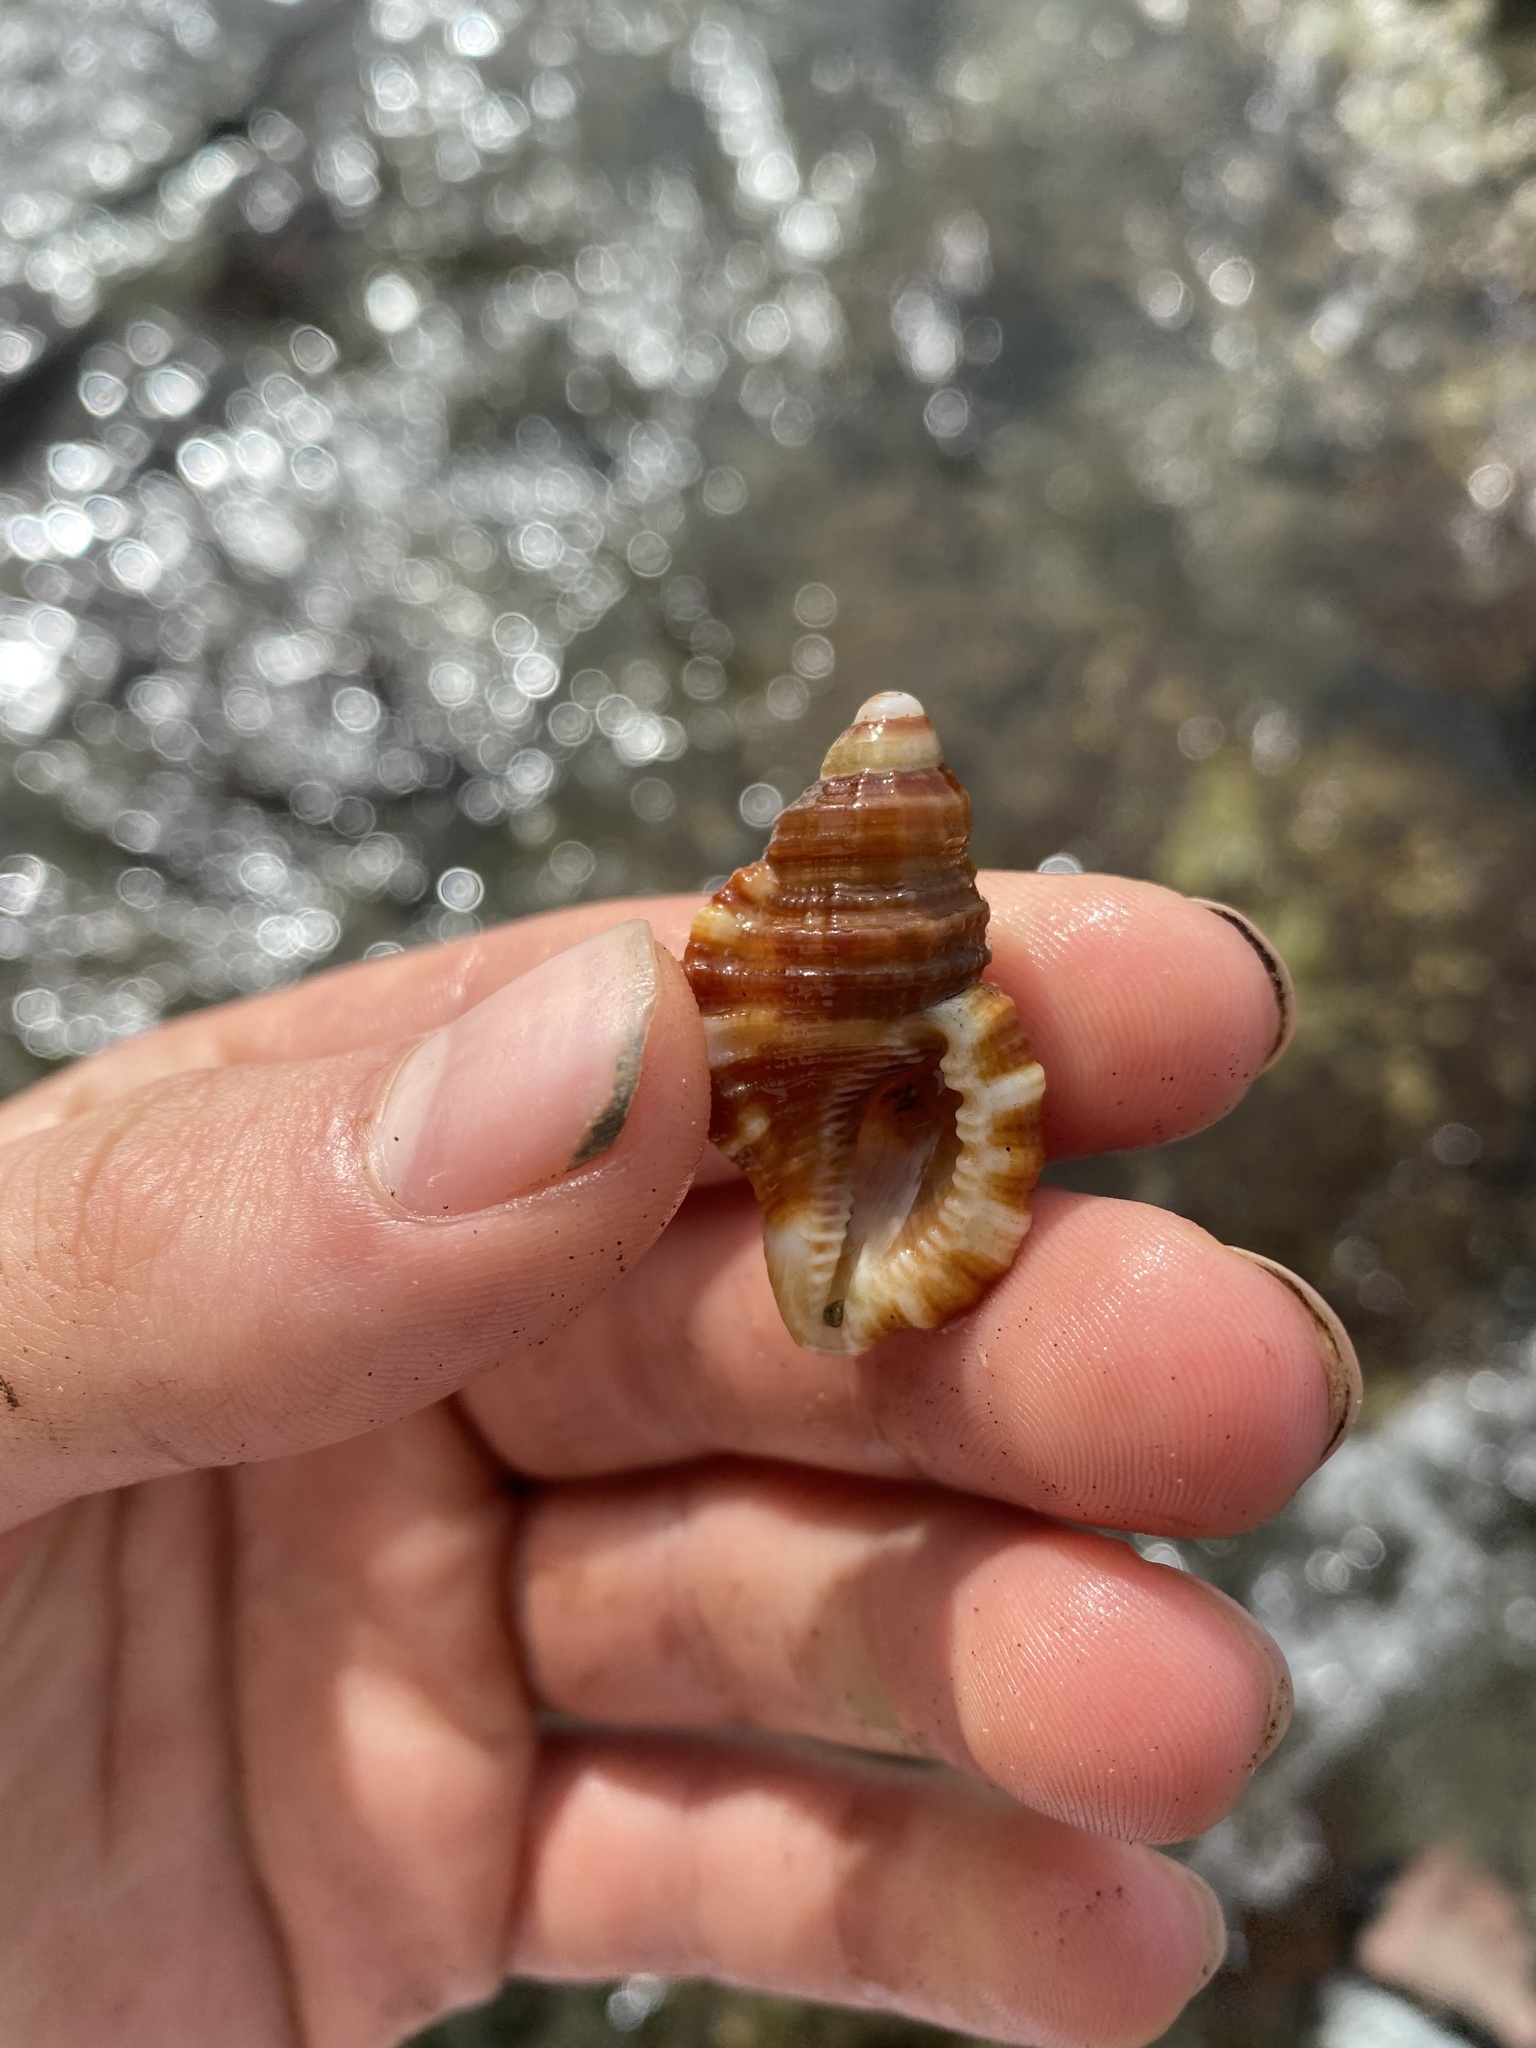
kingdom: Animalia
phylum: Mollusca
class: Gastropoda
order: Littorinimorpha
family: Cymatiidae
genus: Monoplex
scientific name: Monoplex aquatilis
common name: Aquatile hairy triton
